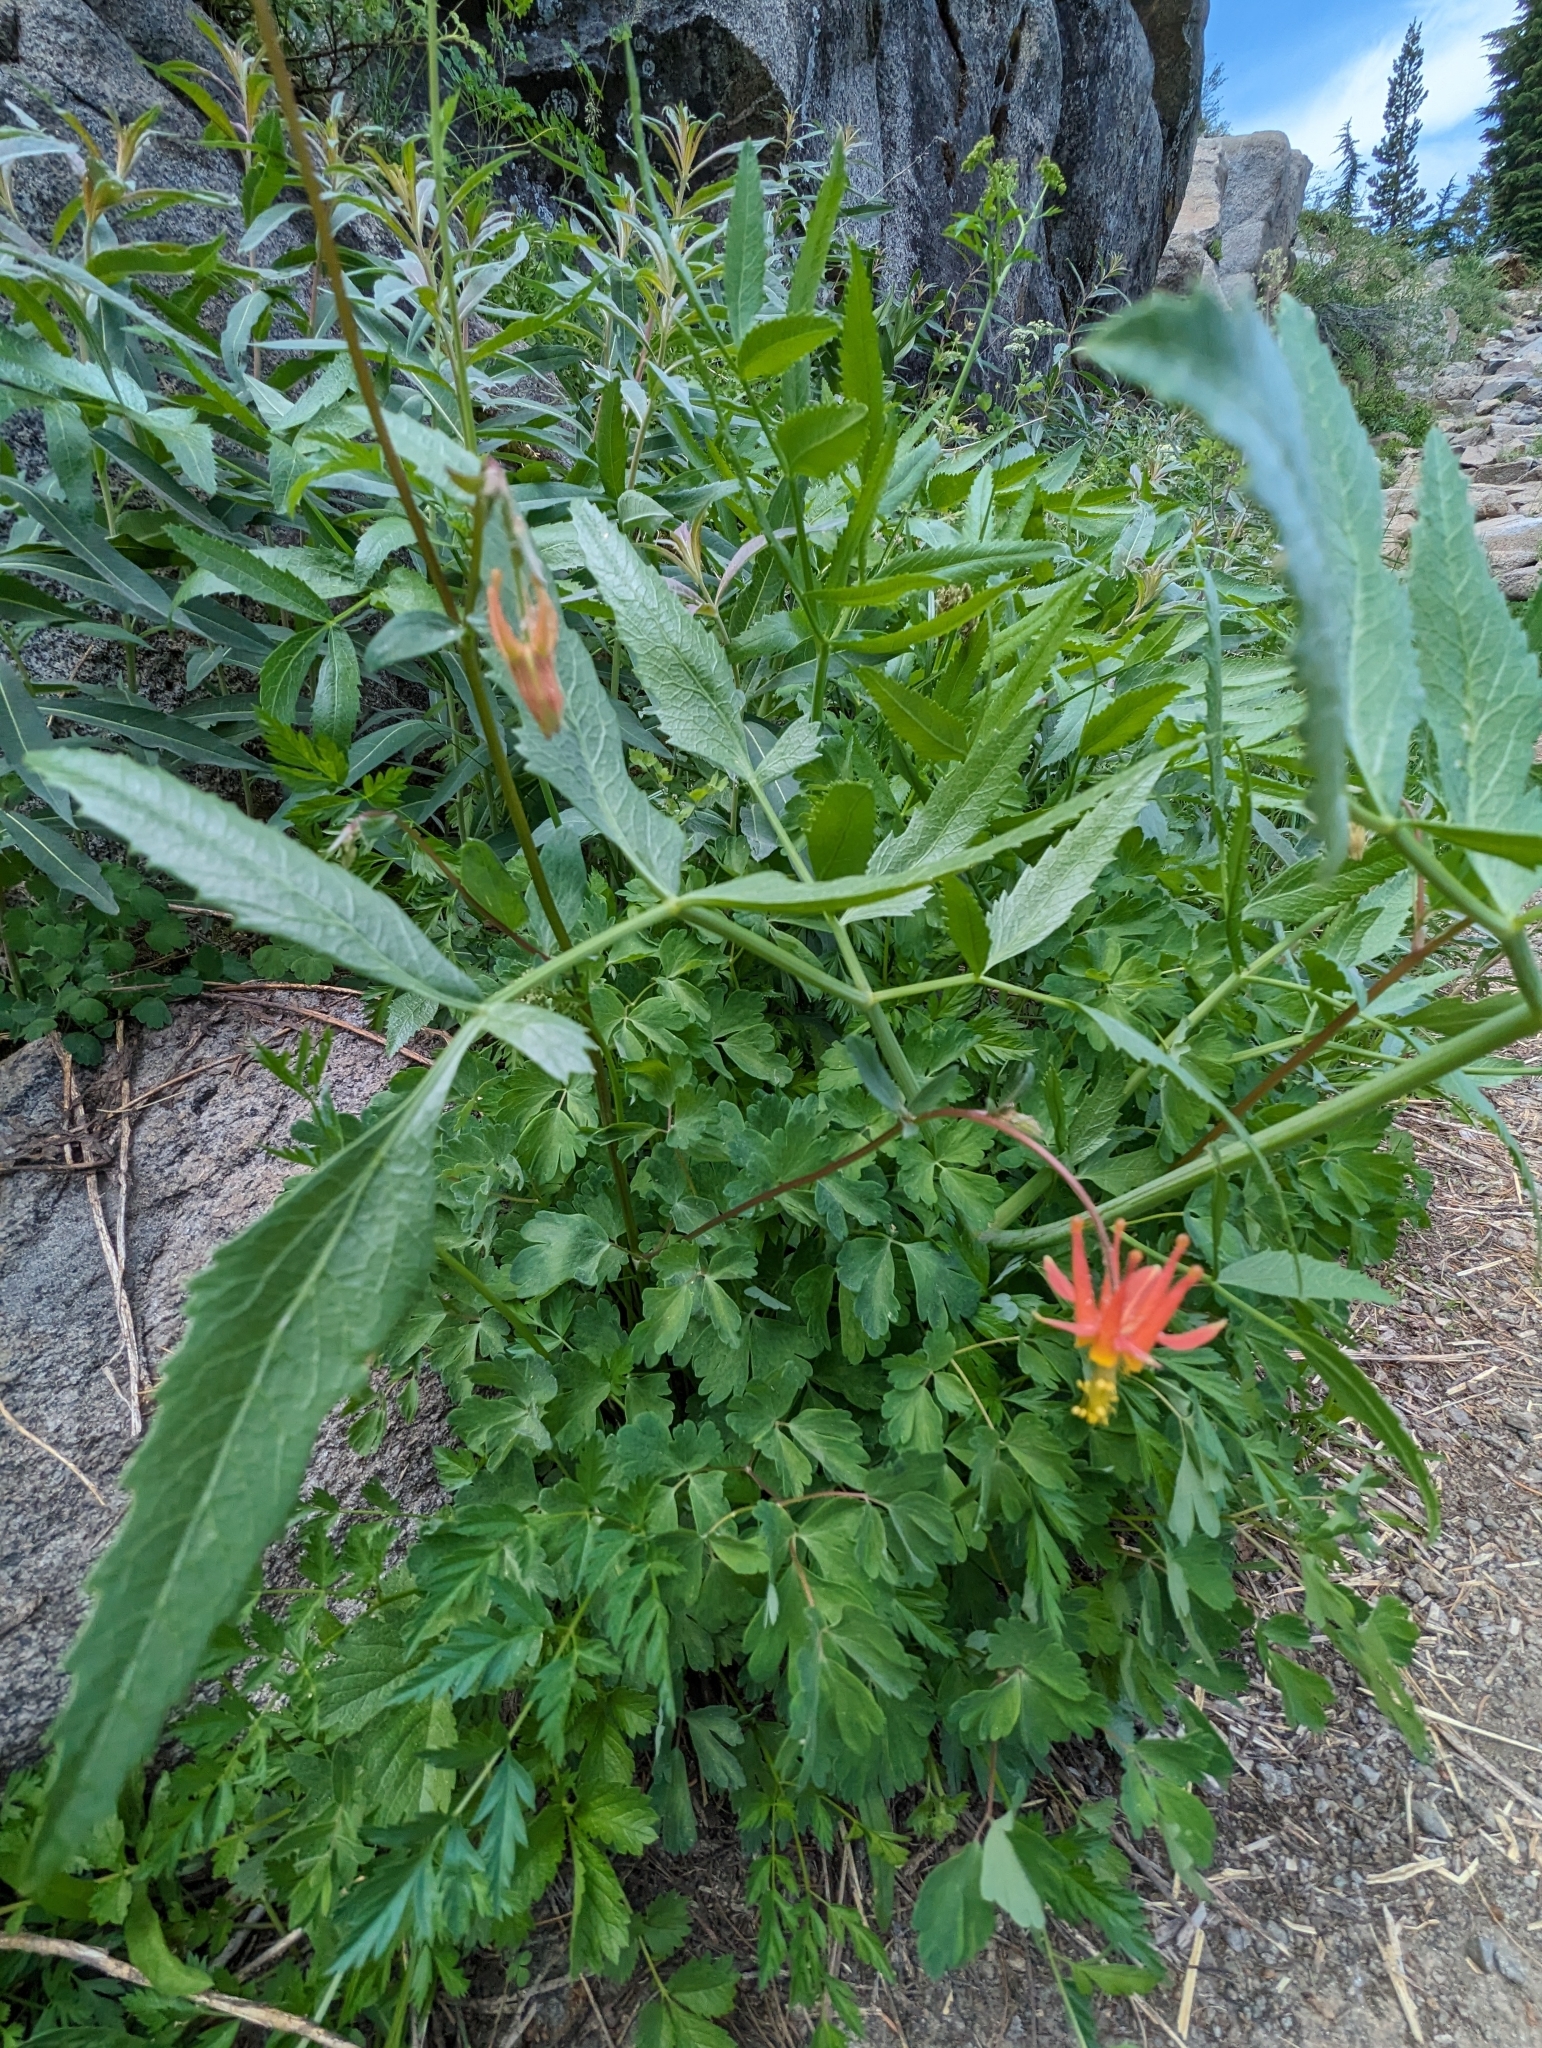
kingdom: Plantae
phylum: Tracheophyta
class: Magnoliopsida
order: Ranunculales
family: Ranunculaceae
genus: Aquilegia
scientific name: Aquilegia formosa
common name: Sitka columbine
